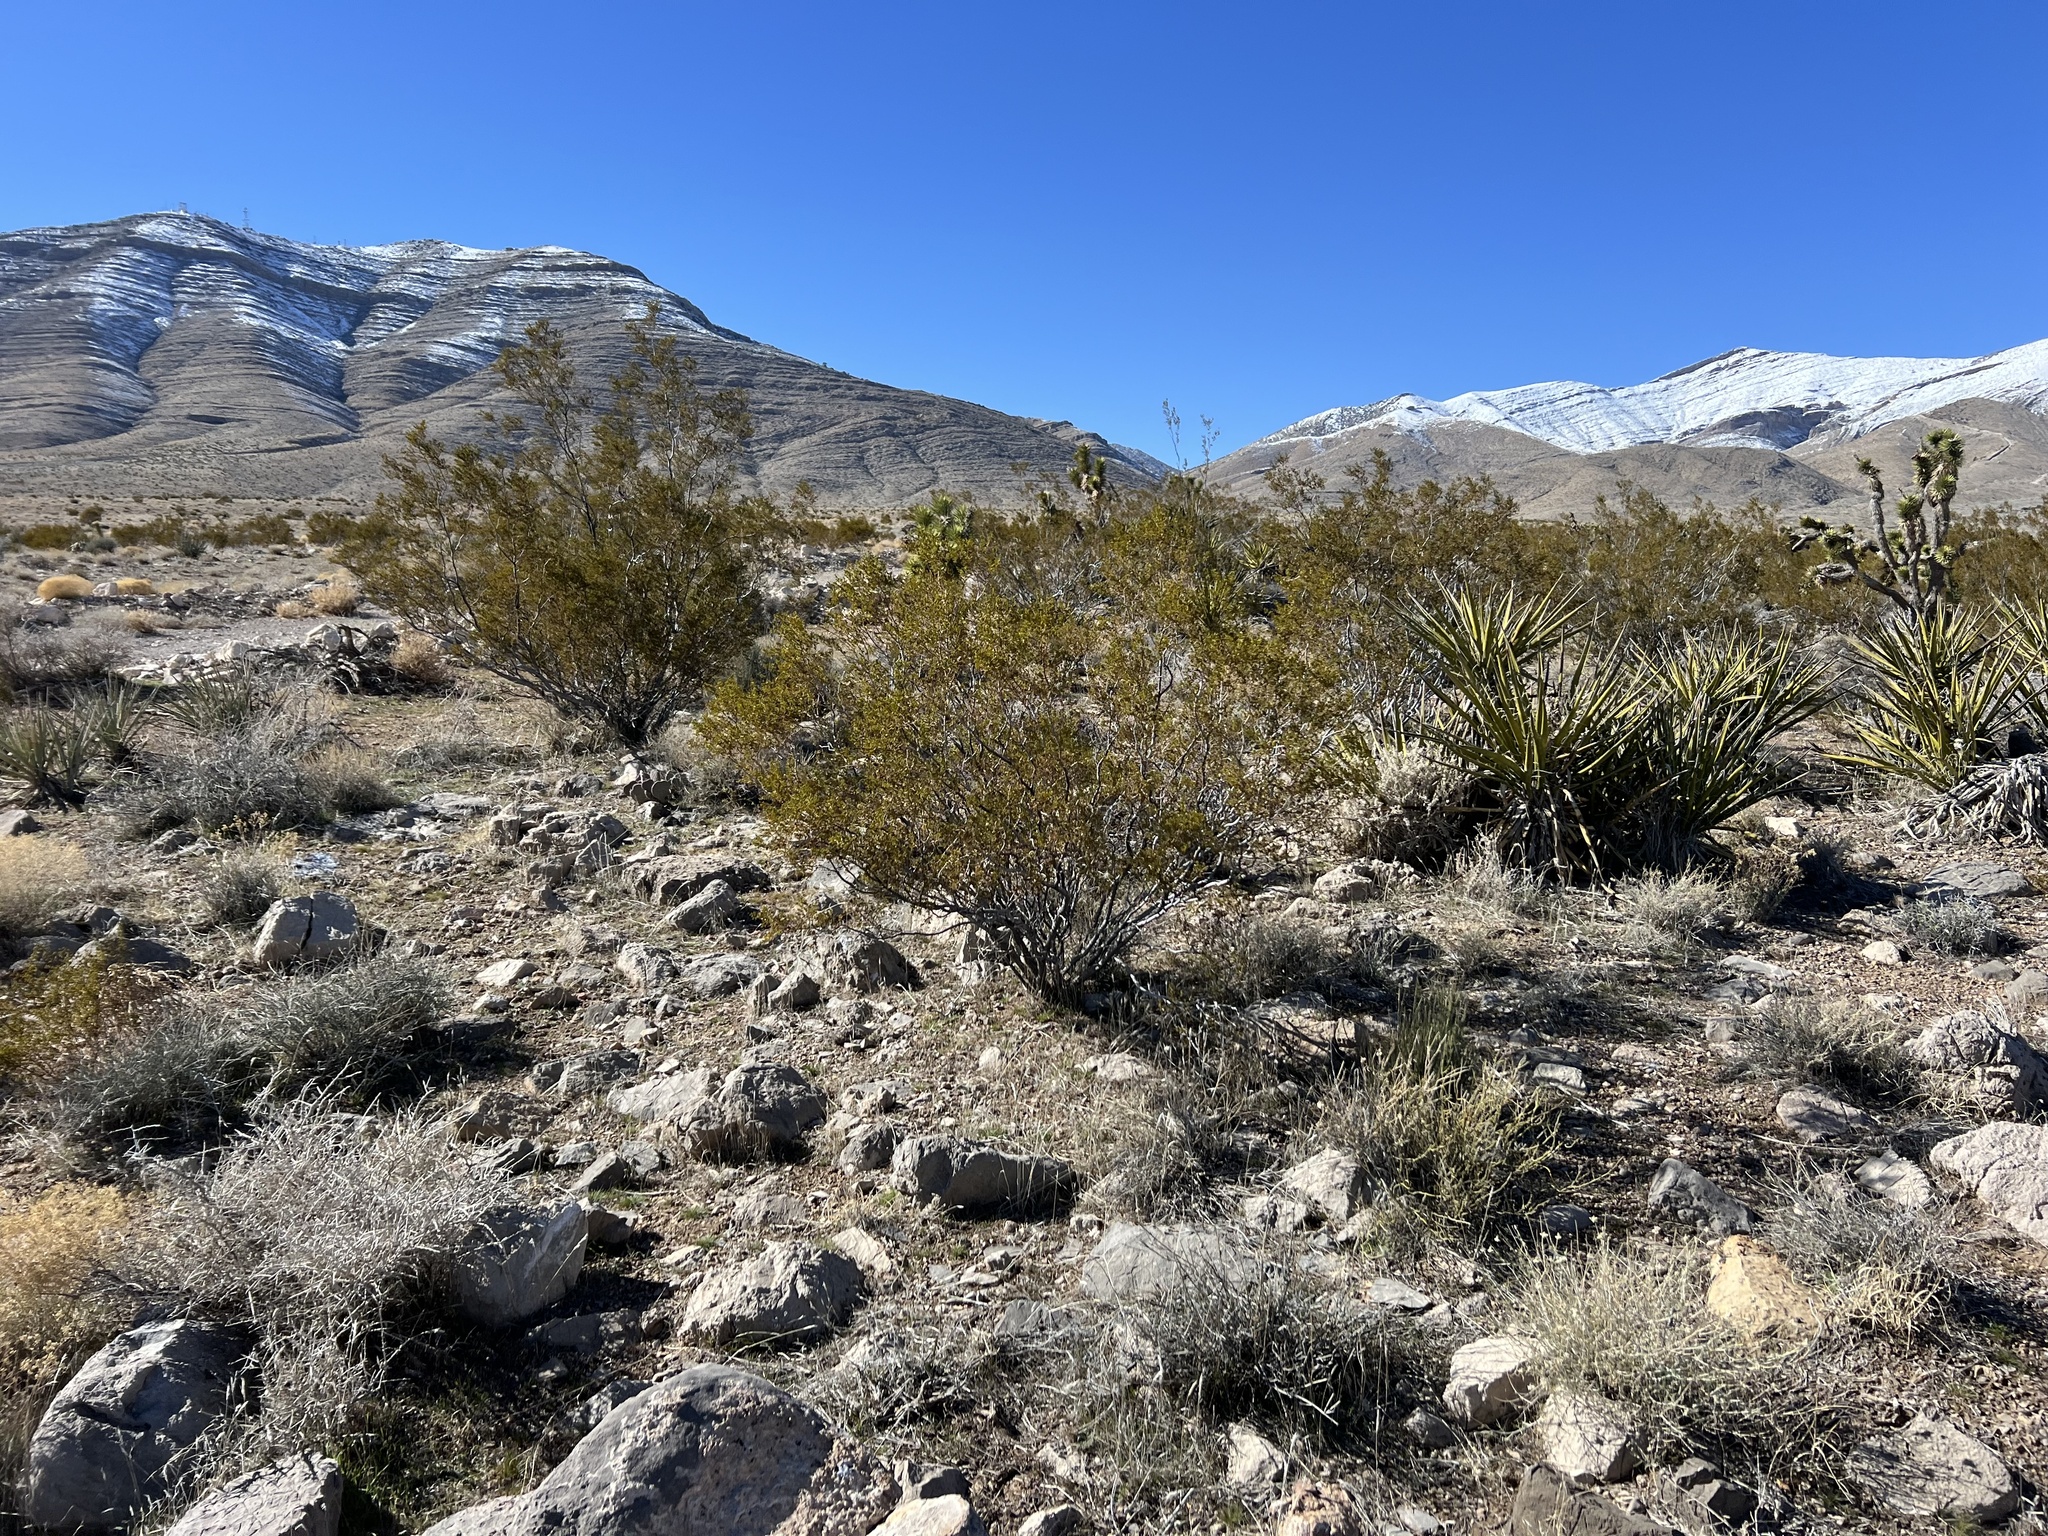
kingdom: Plantae
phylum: Tracheophyta
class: Magnoliopsida
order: Zygophyllales
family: Zygophyllaceae
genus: Larrea
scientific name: Larrea tridentata
